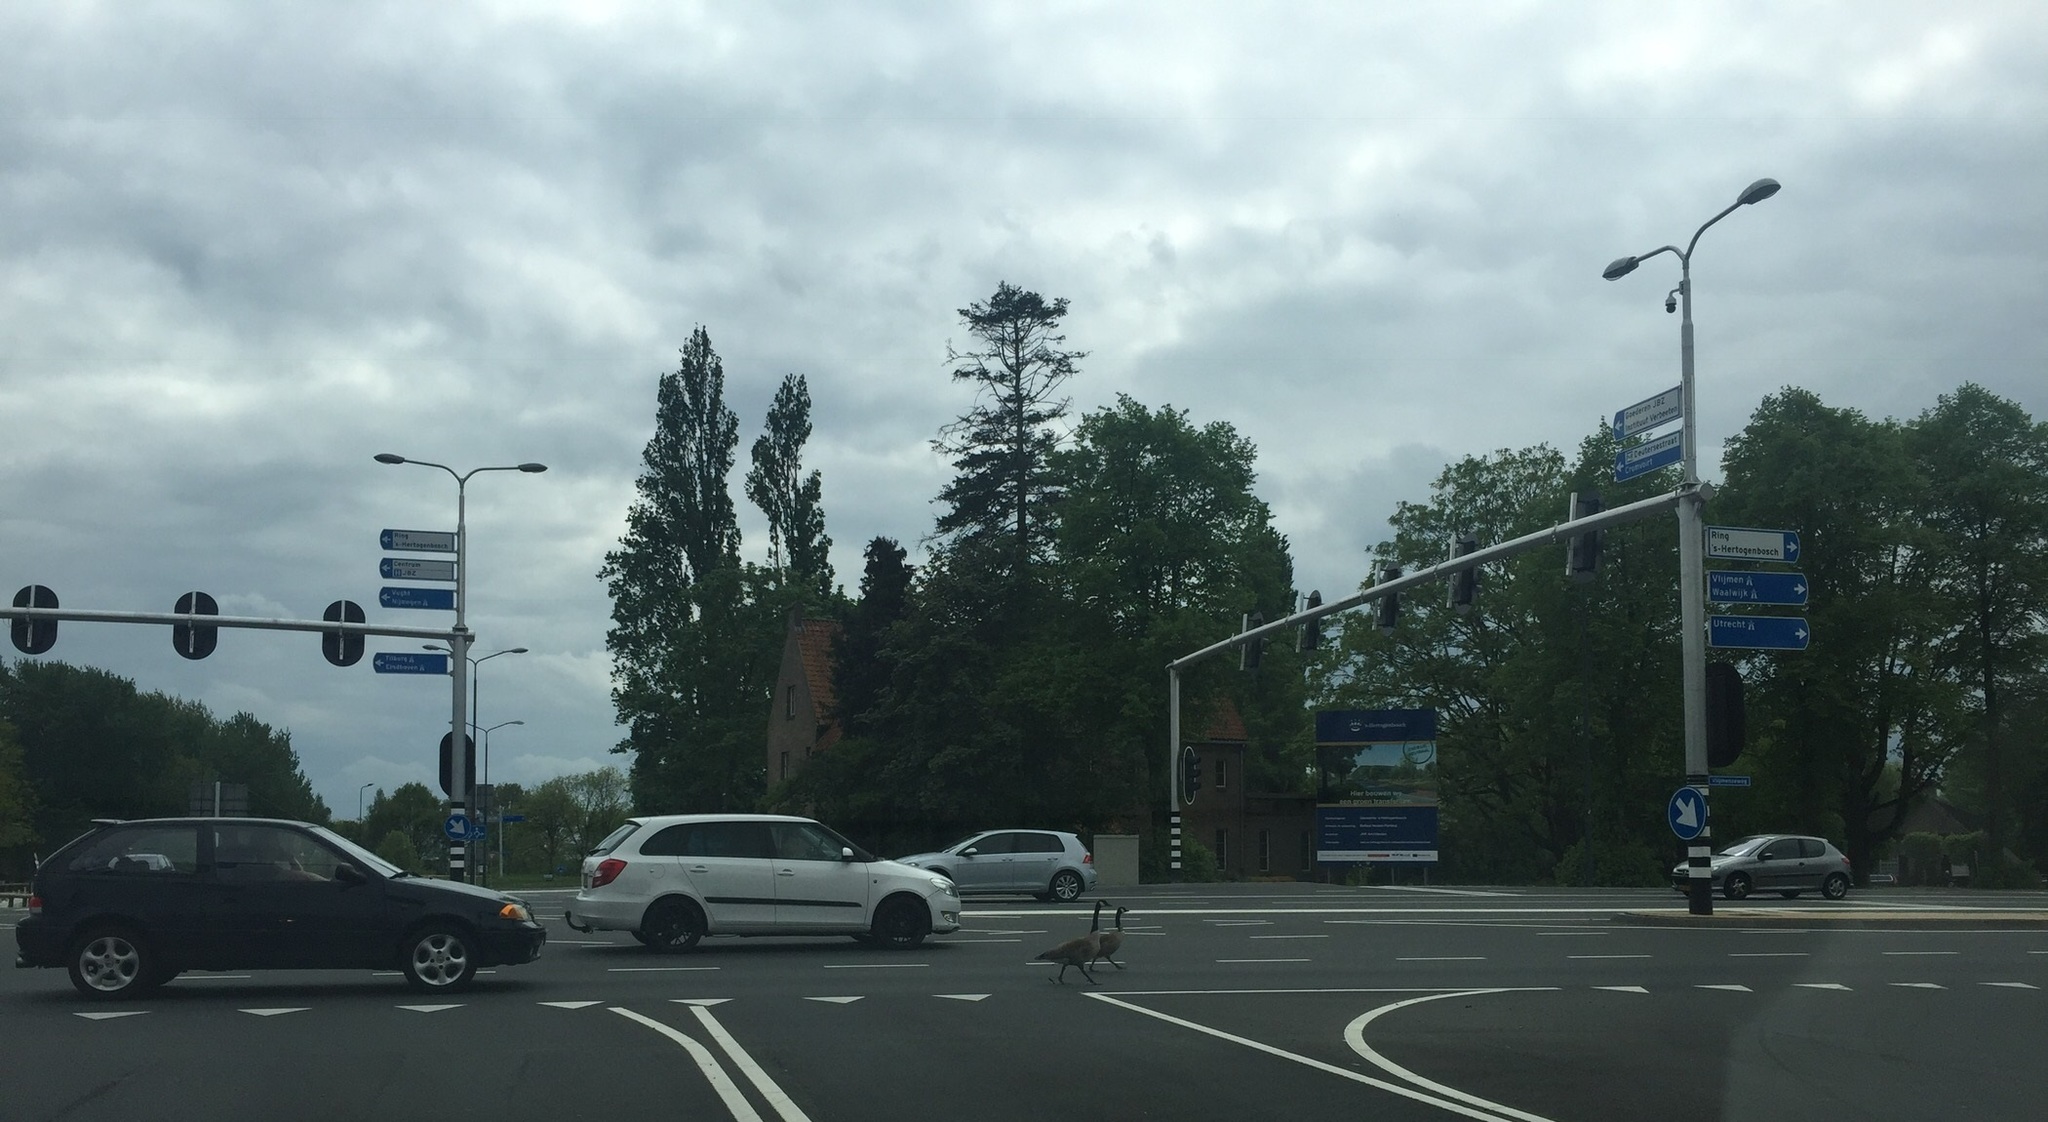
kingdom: Animalia
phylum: Chordata
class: Aves
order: Anseriformes
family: Anatidae
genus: Branta
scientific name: Branta canadensis
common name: Canada goose
